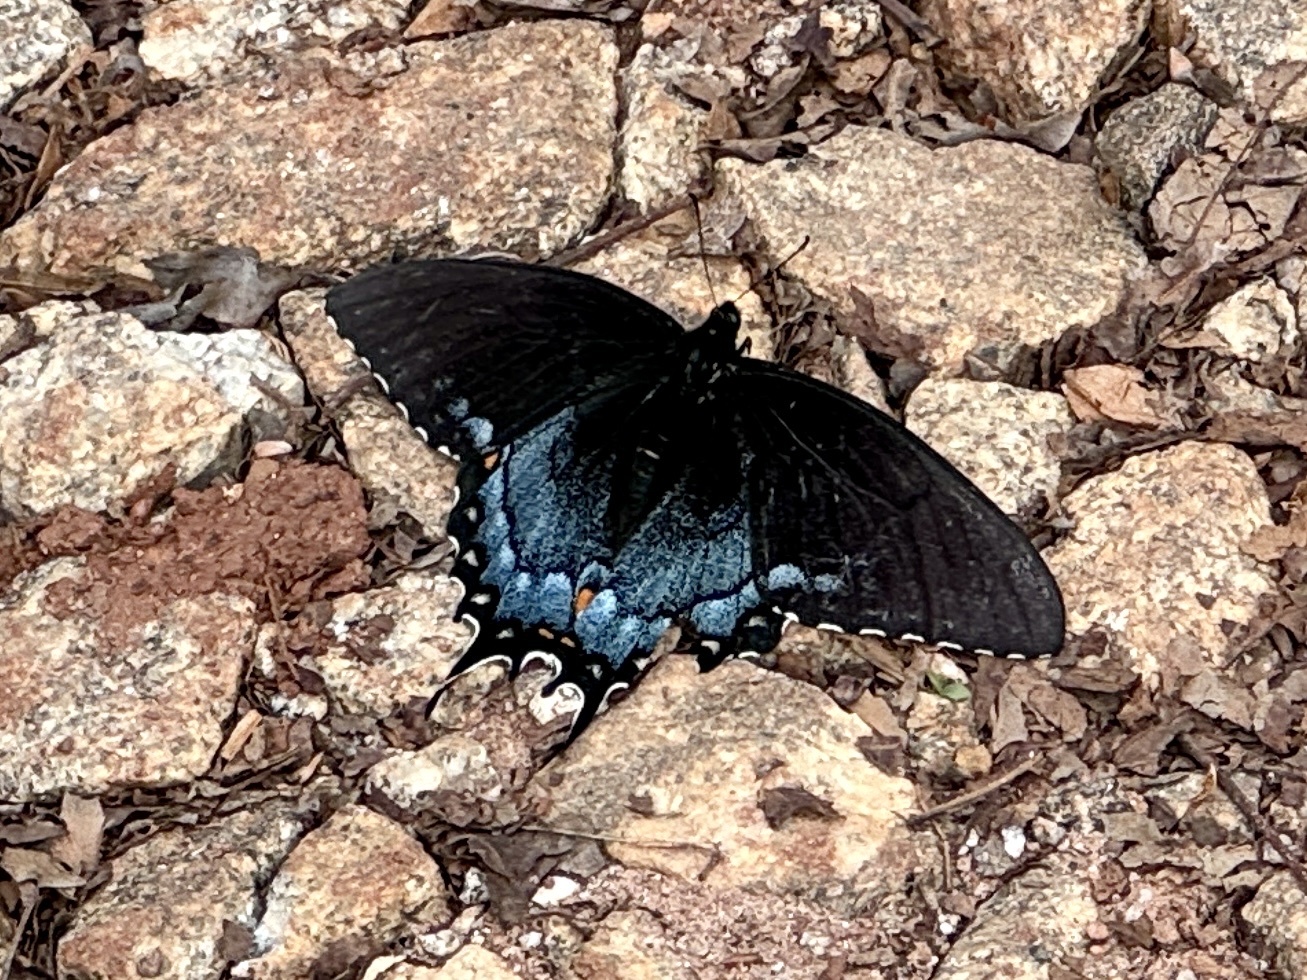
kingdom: Animalia
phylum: Arthropoda
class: Insecta
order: Lepidoptera
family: Papilionidae
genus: Papilio
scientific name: Papilio glaucus
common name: Tiger swallowtail
